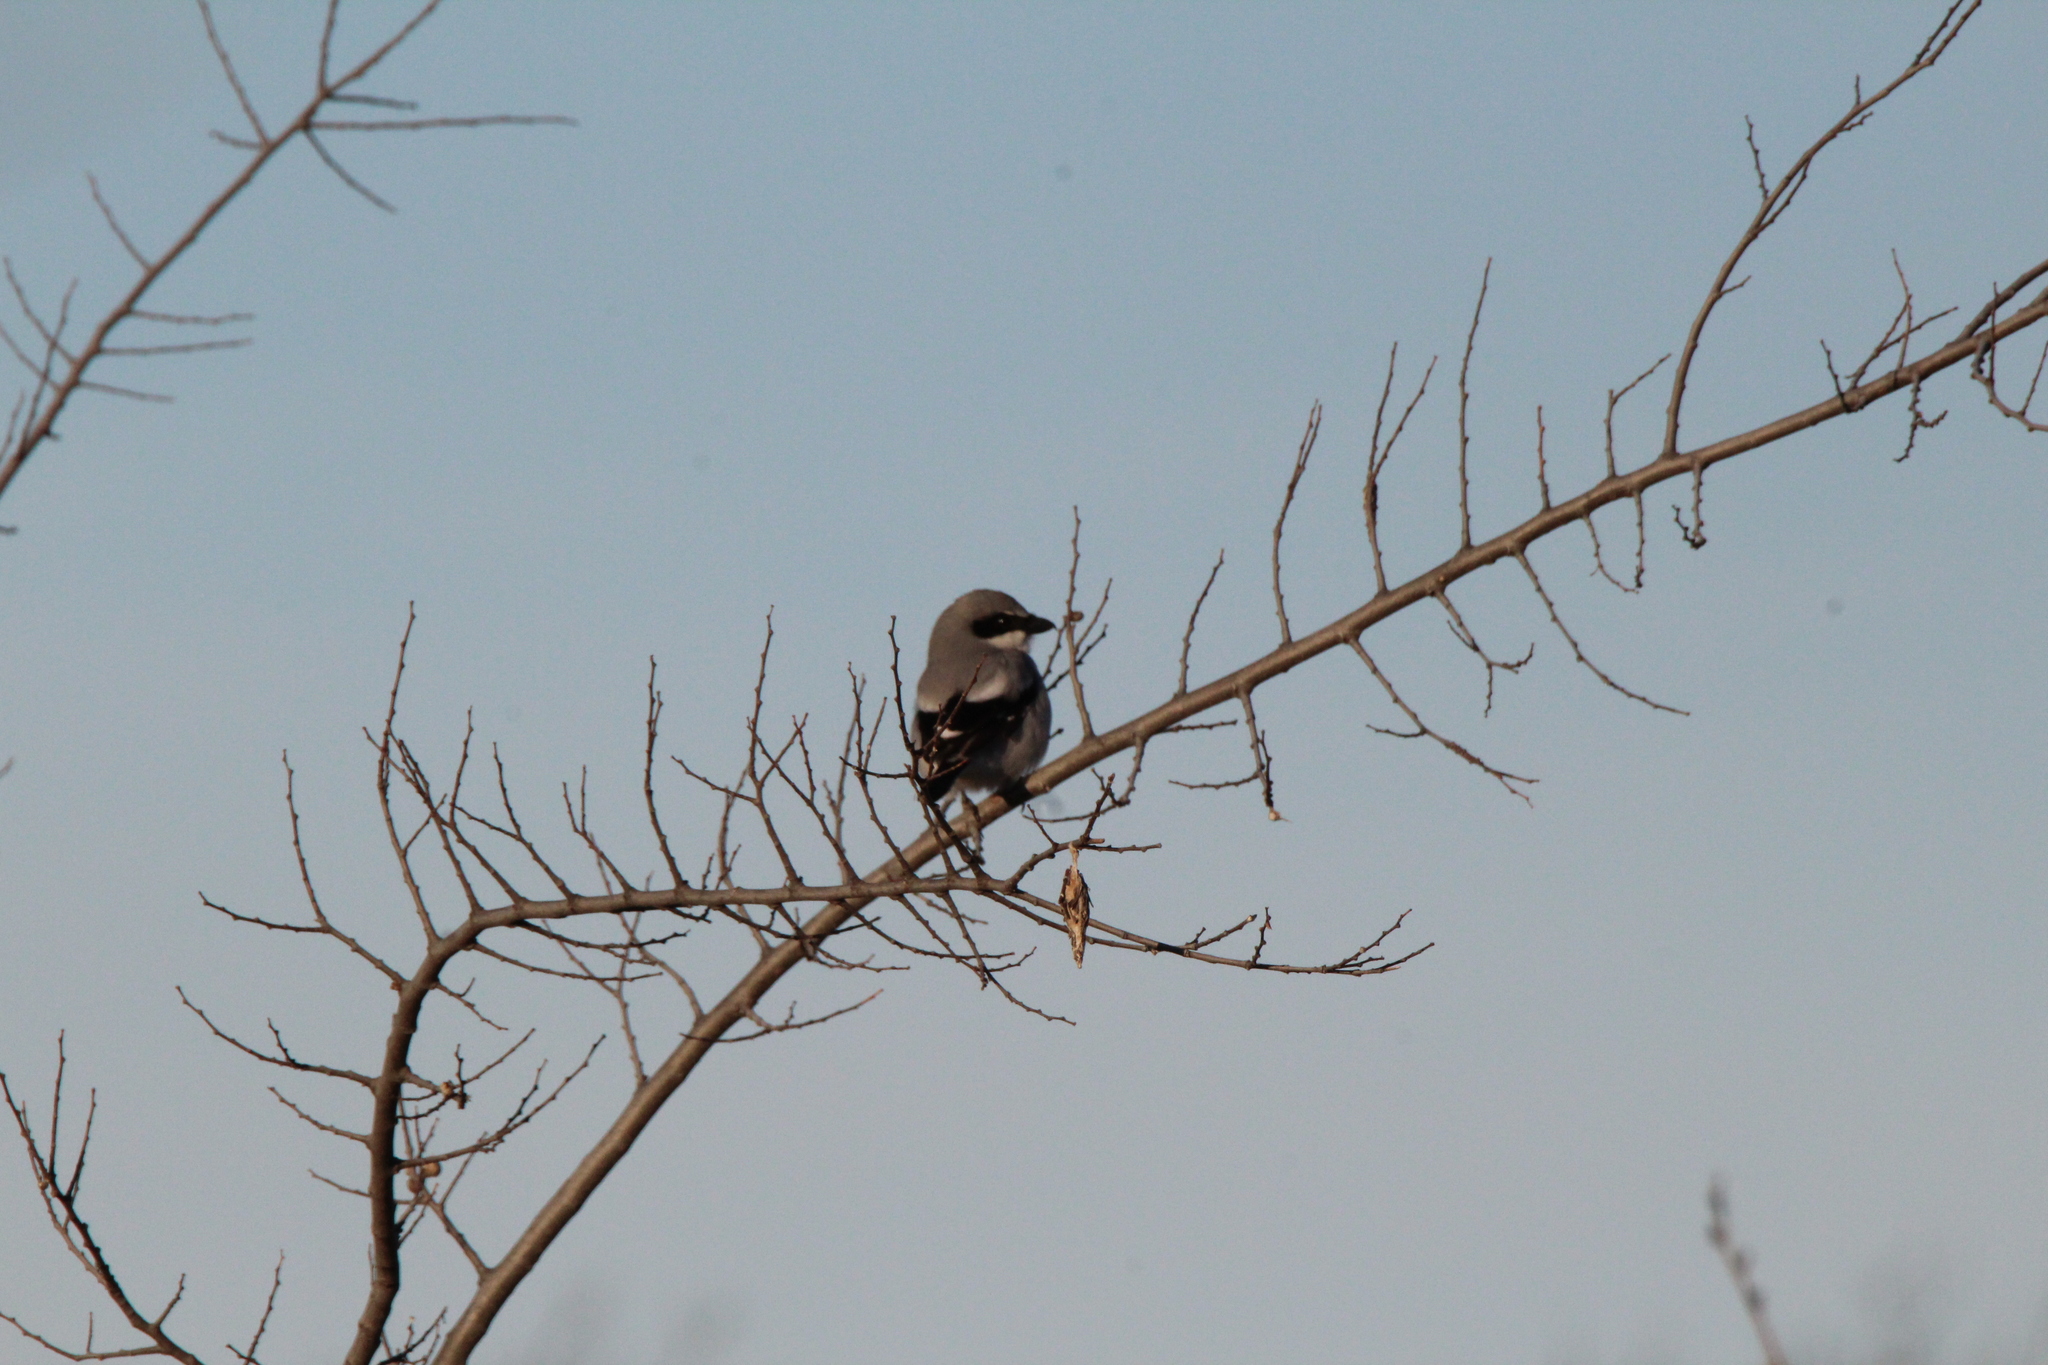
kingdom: Animalia
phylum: Chordata
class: Aves
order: Passeriformes
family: Laniidae
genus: Lanius
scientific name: Lanius ludovicianus
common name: Loggerhead shrike
